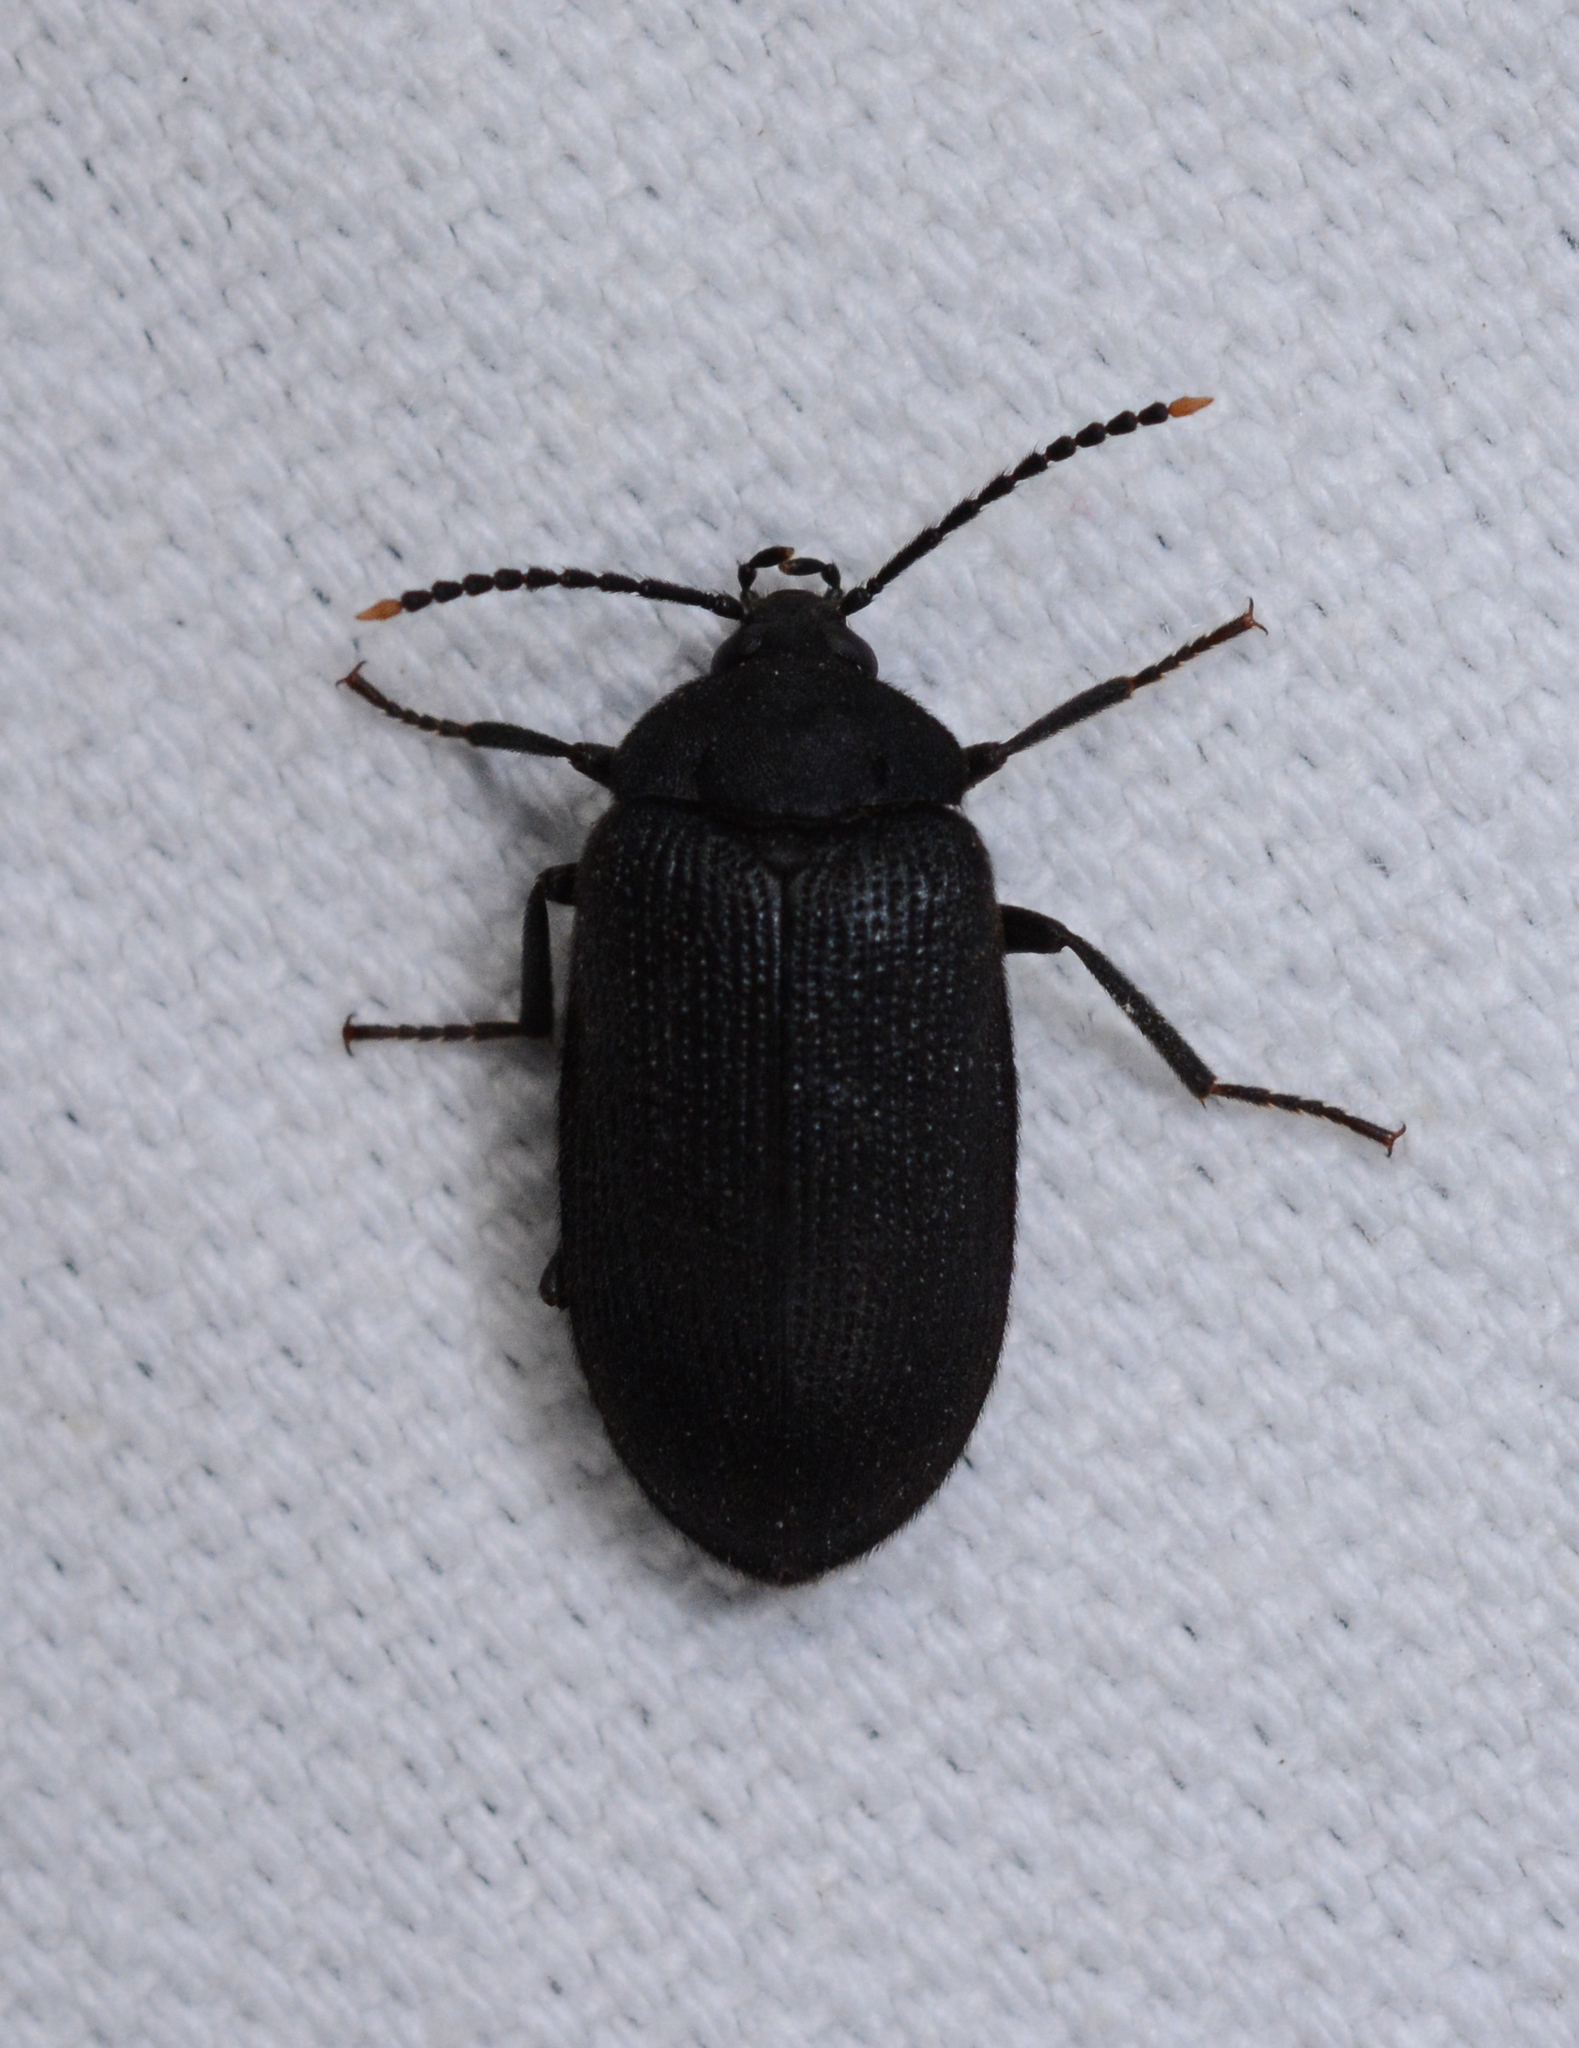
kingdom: Animalia
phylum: Arthropoda
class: Insecta
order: Coleoptera
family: Tetratomidae
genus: Penthe
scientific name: Penthe pimelia
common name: Velvety bark beetle
